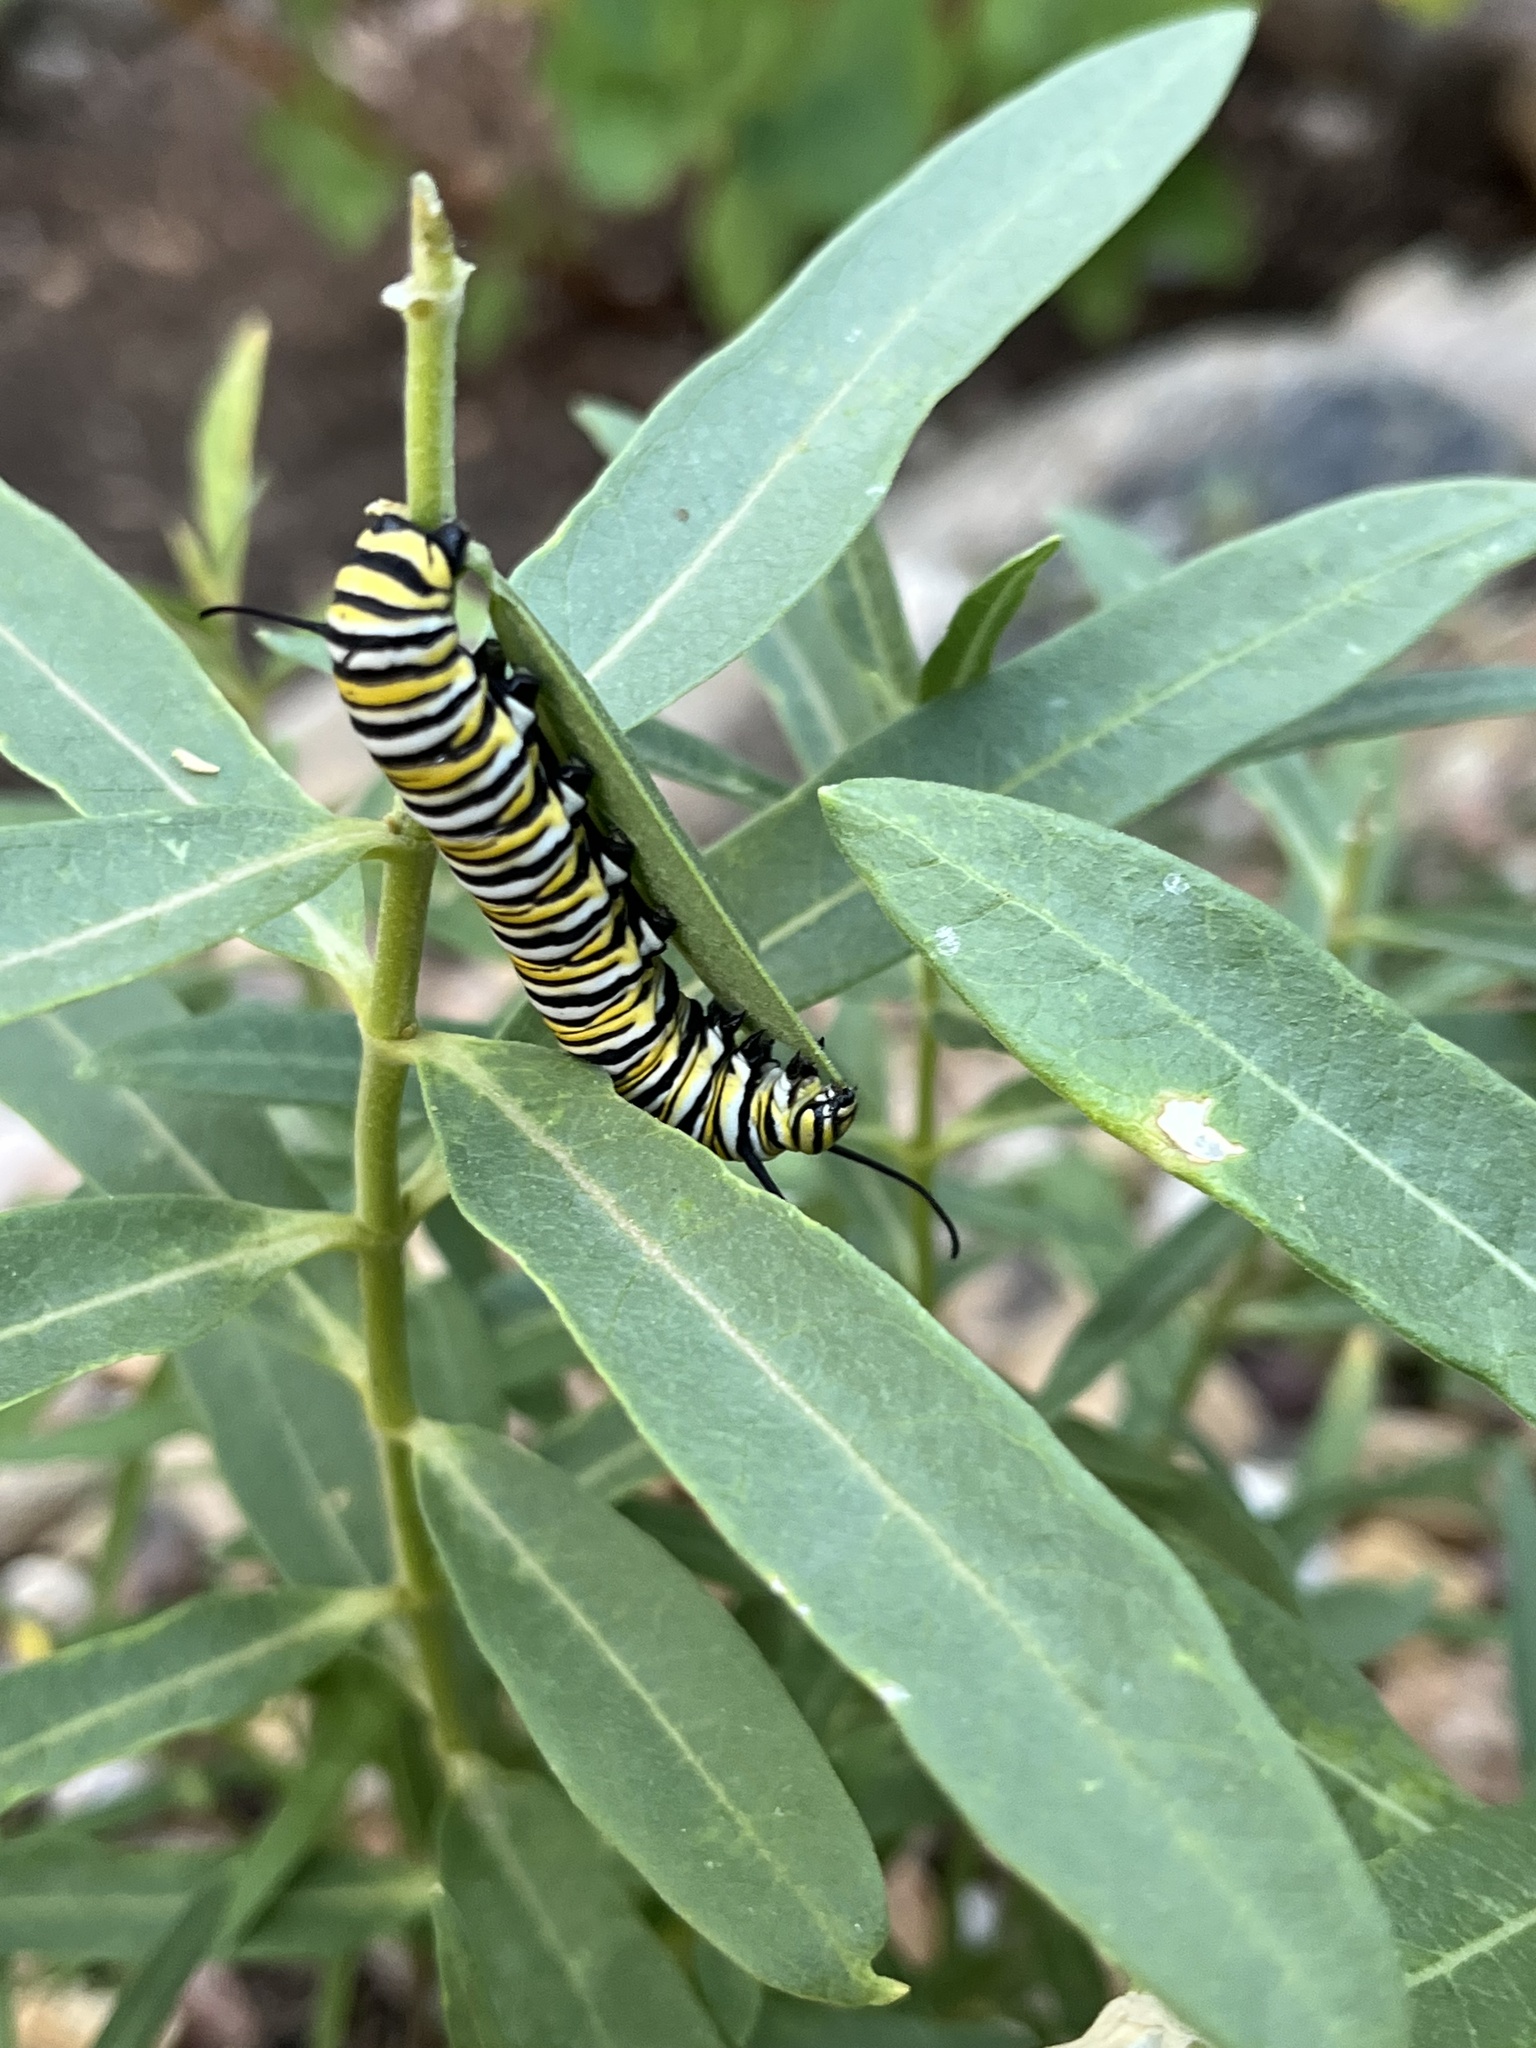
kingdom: Animalia
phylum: Arthropoda
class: Insecta
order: Lepidoptera
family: Nymphalidae
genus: Danaus
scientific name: Danaus plexippus
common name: Monarch
